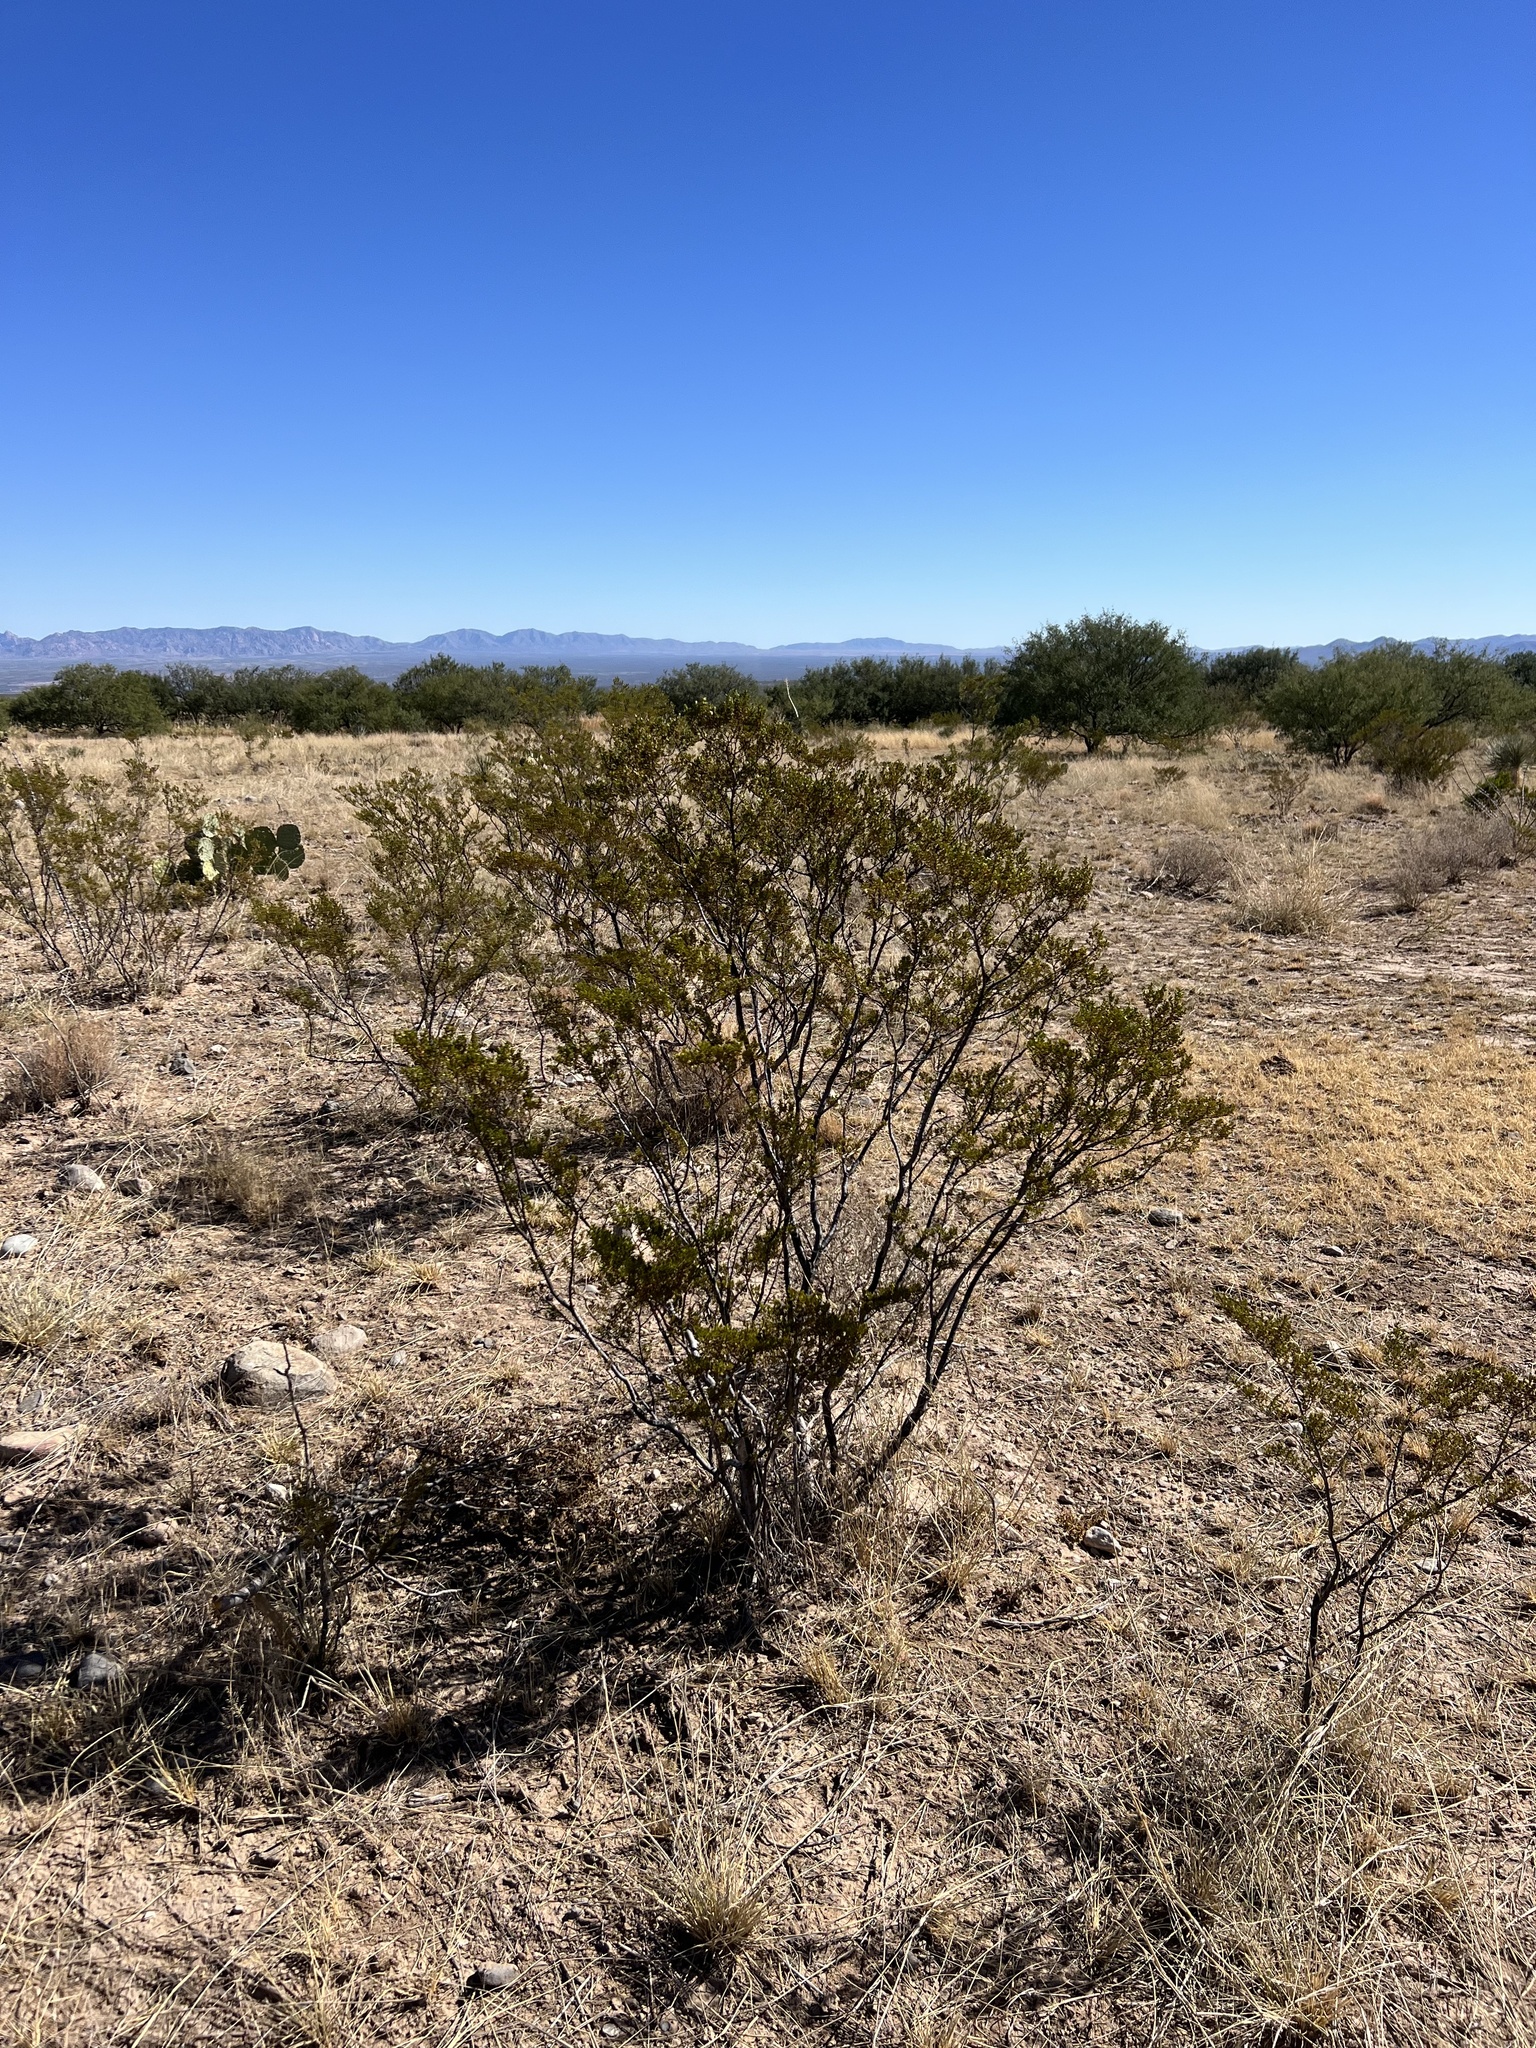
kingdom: Plantae
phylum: Tracheophyta
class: Magnoliopsida
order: Zygophyllales
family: Zygophyllaceae
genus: Larrea
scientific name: Larrea tridentata
